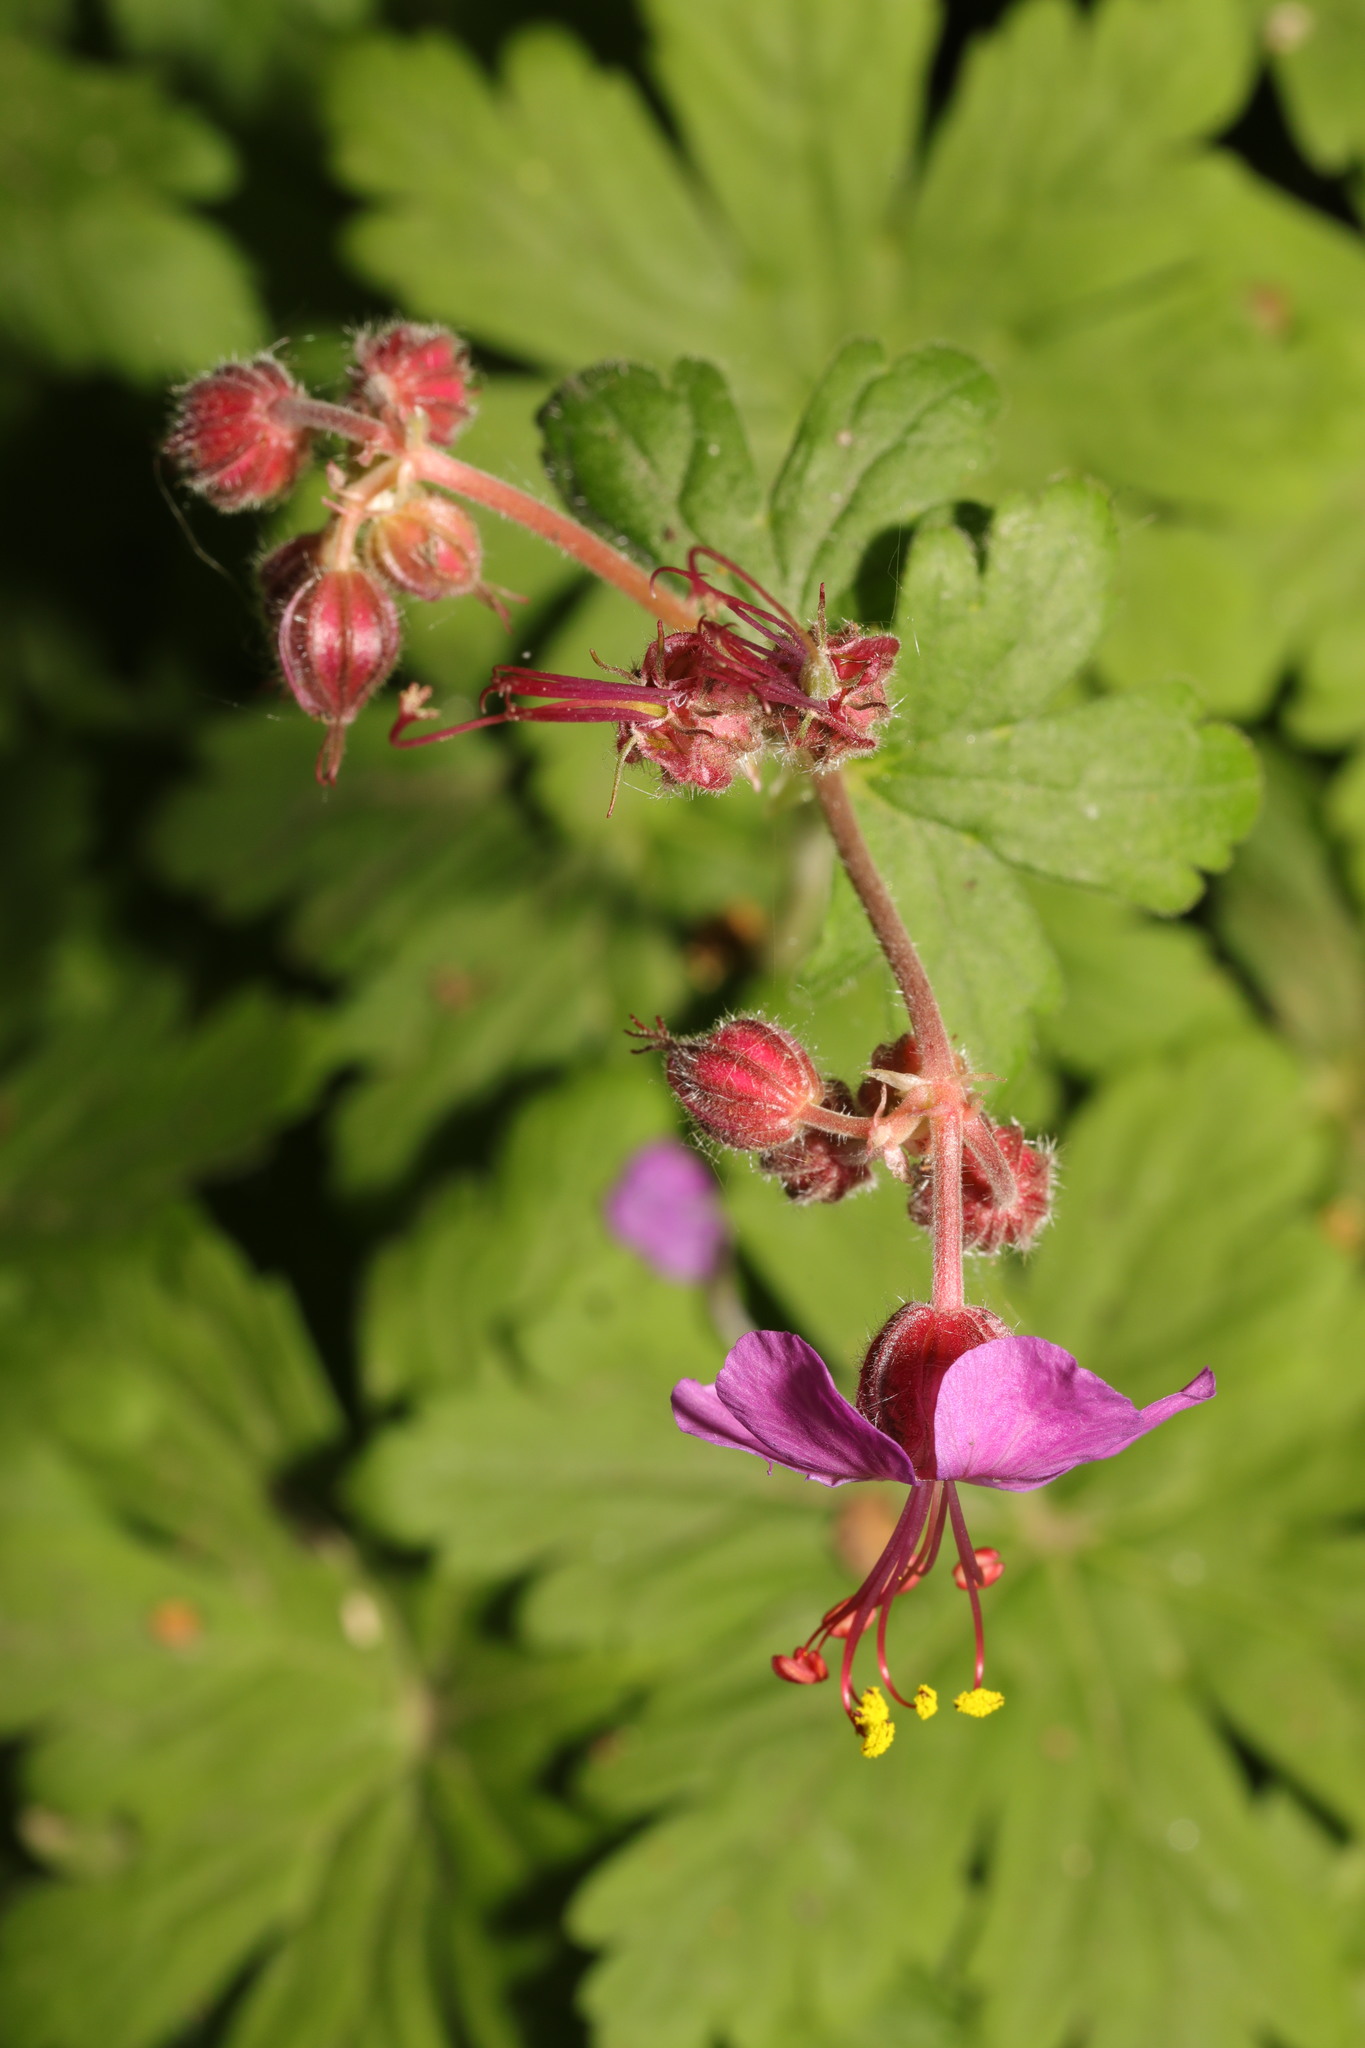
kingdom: Plantae
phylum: Tracheophyta
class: Magnoliopsida
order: Geraniales
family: Geraniaceae
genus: Geranium
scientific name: Geranium macrorrhizum
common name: Rock crane's-bill
